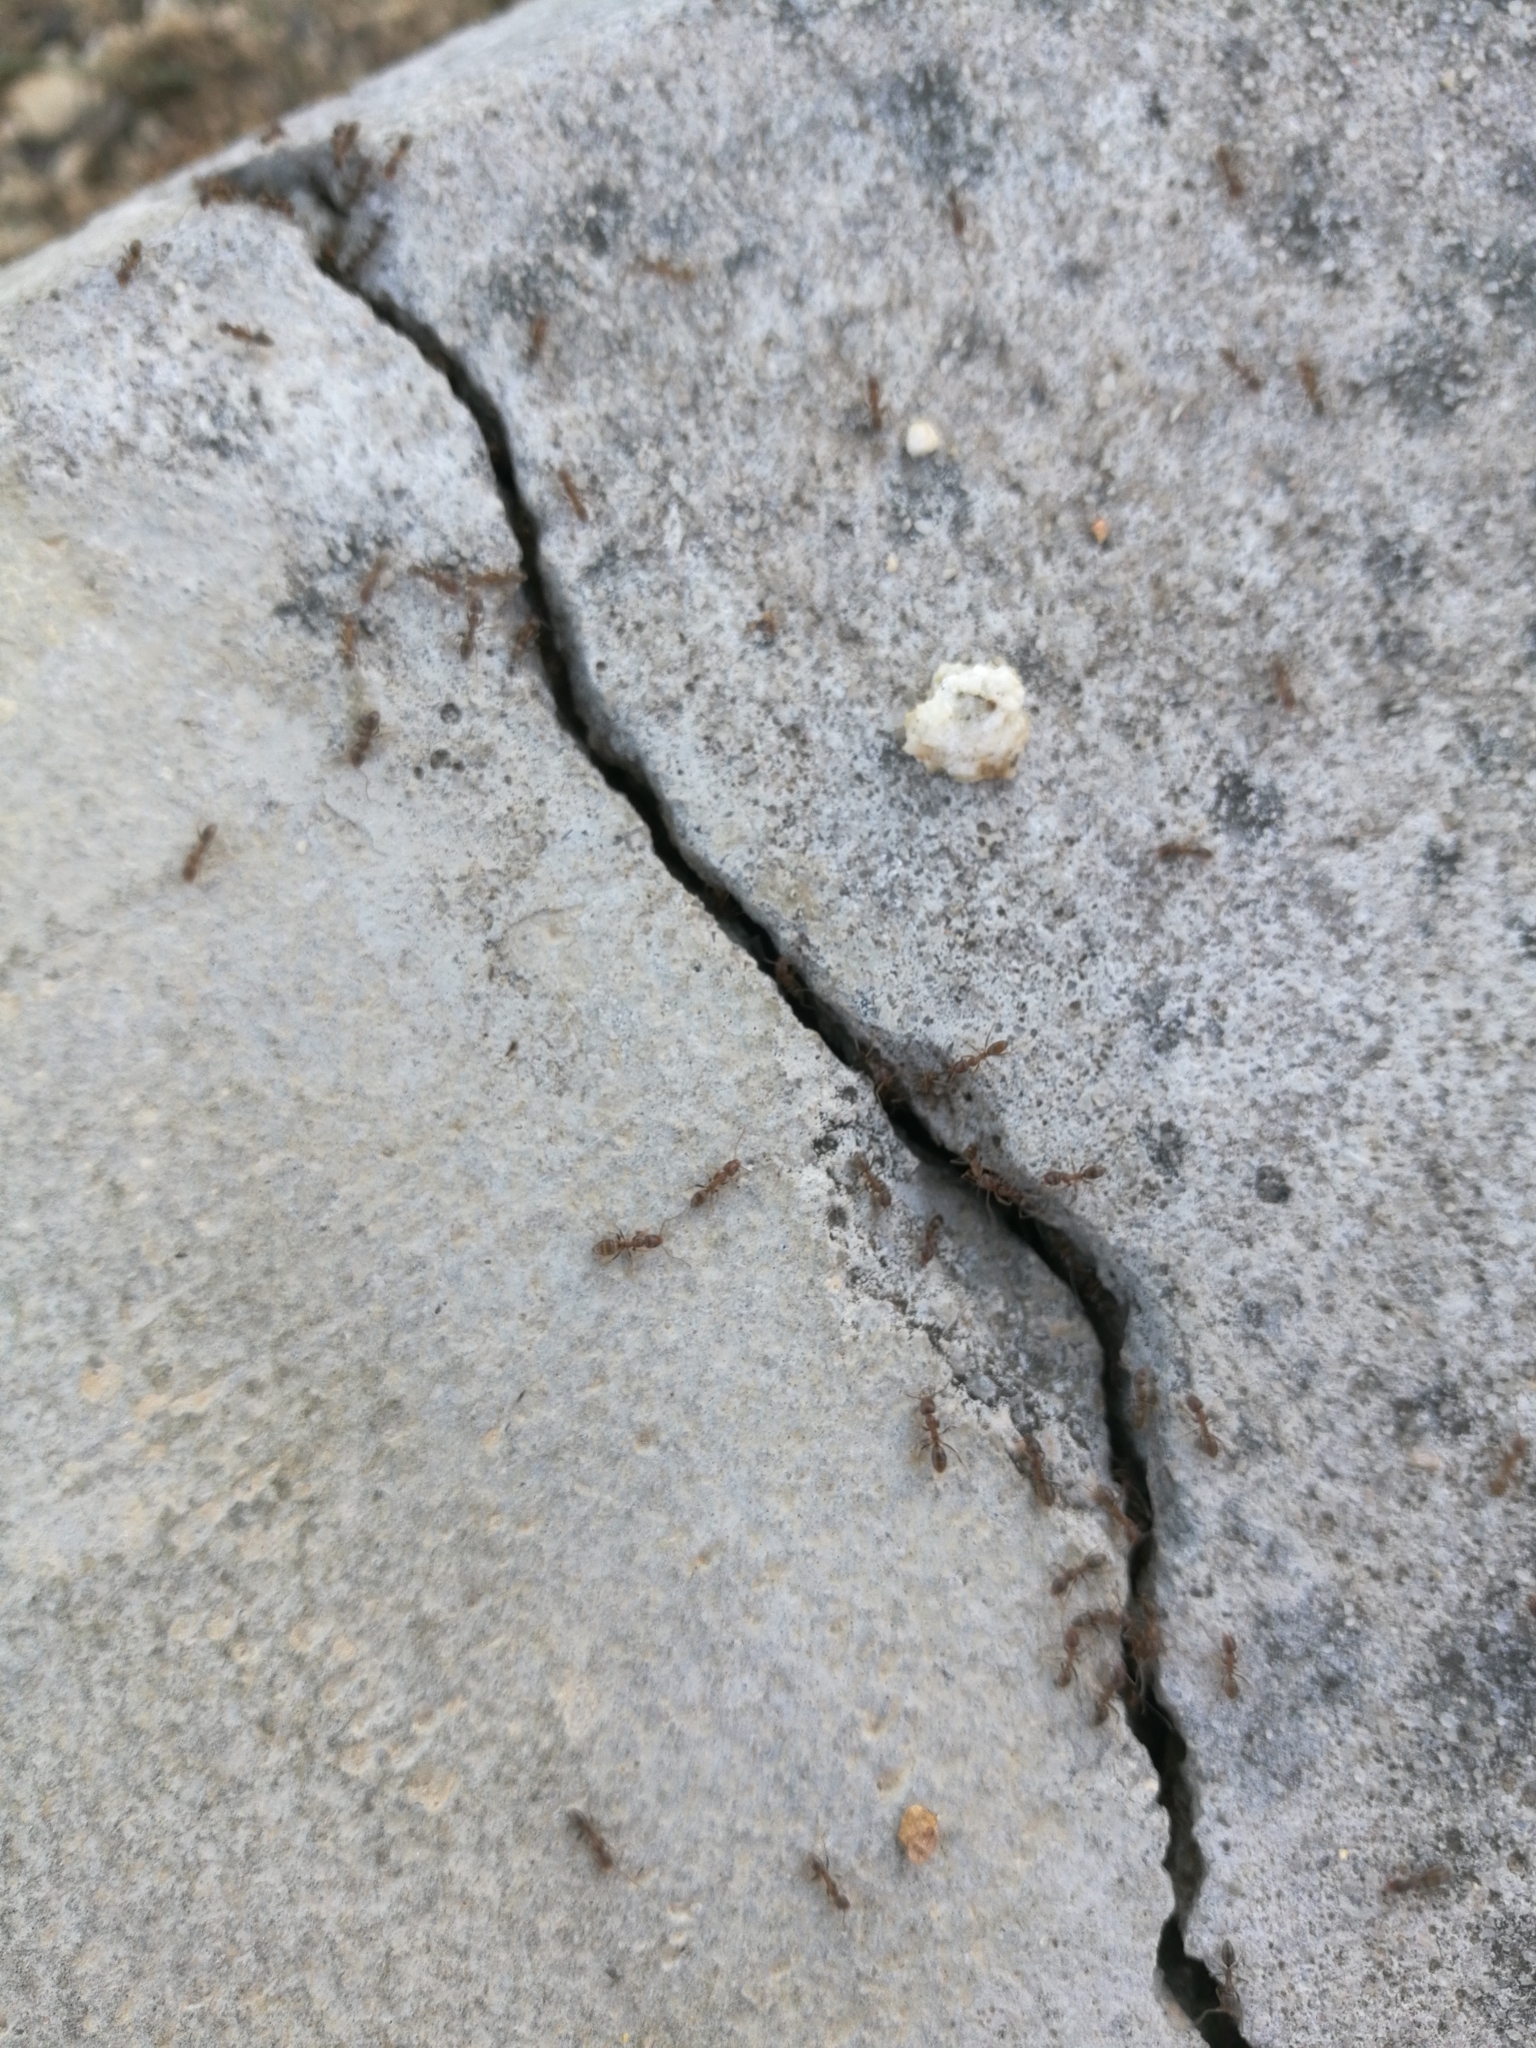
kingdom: Animalia
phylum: Arthropoda
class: Insecta
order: Hymenoptera
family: Formicidae
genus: Linepithema
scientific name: Linepithema humile
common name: Argentine ant
